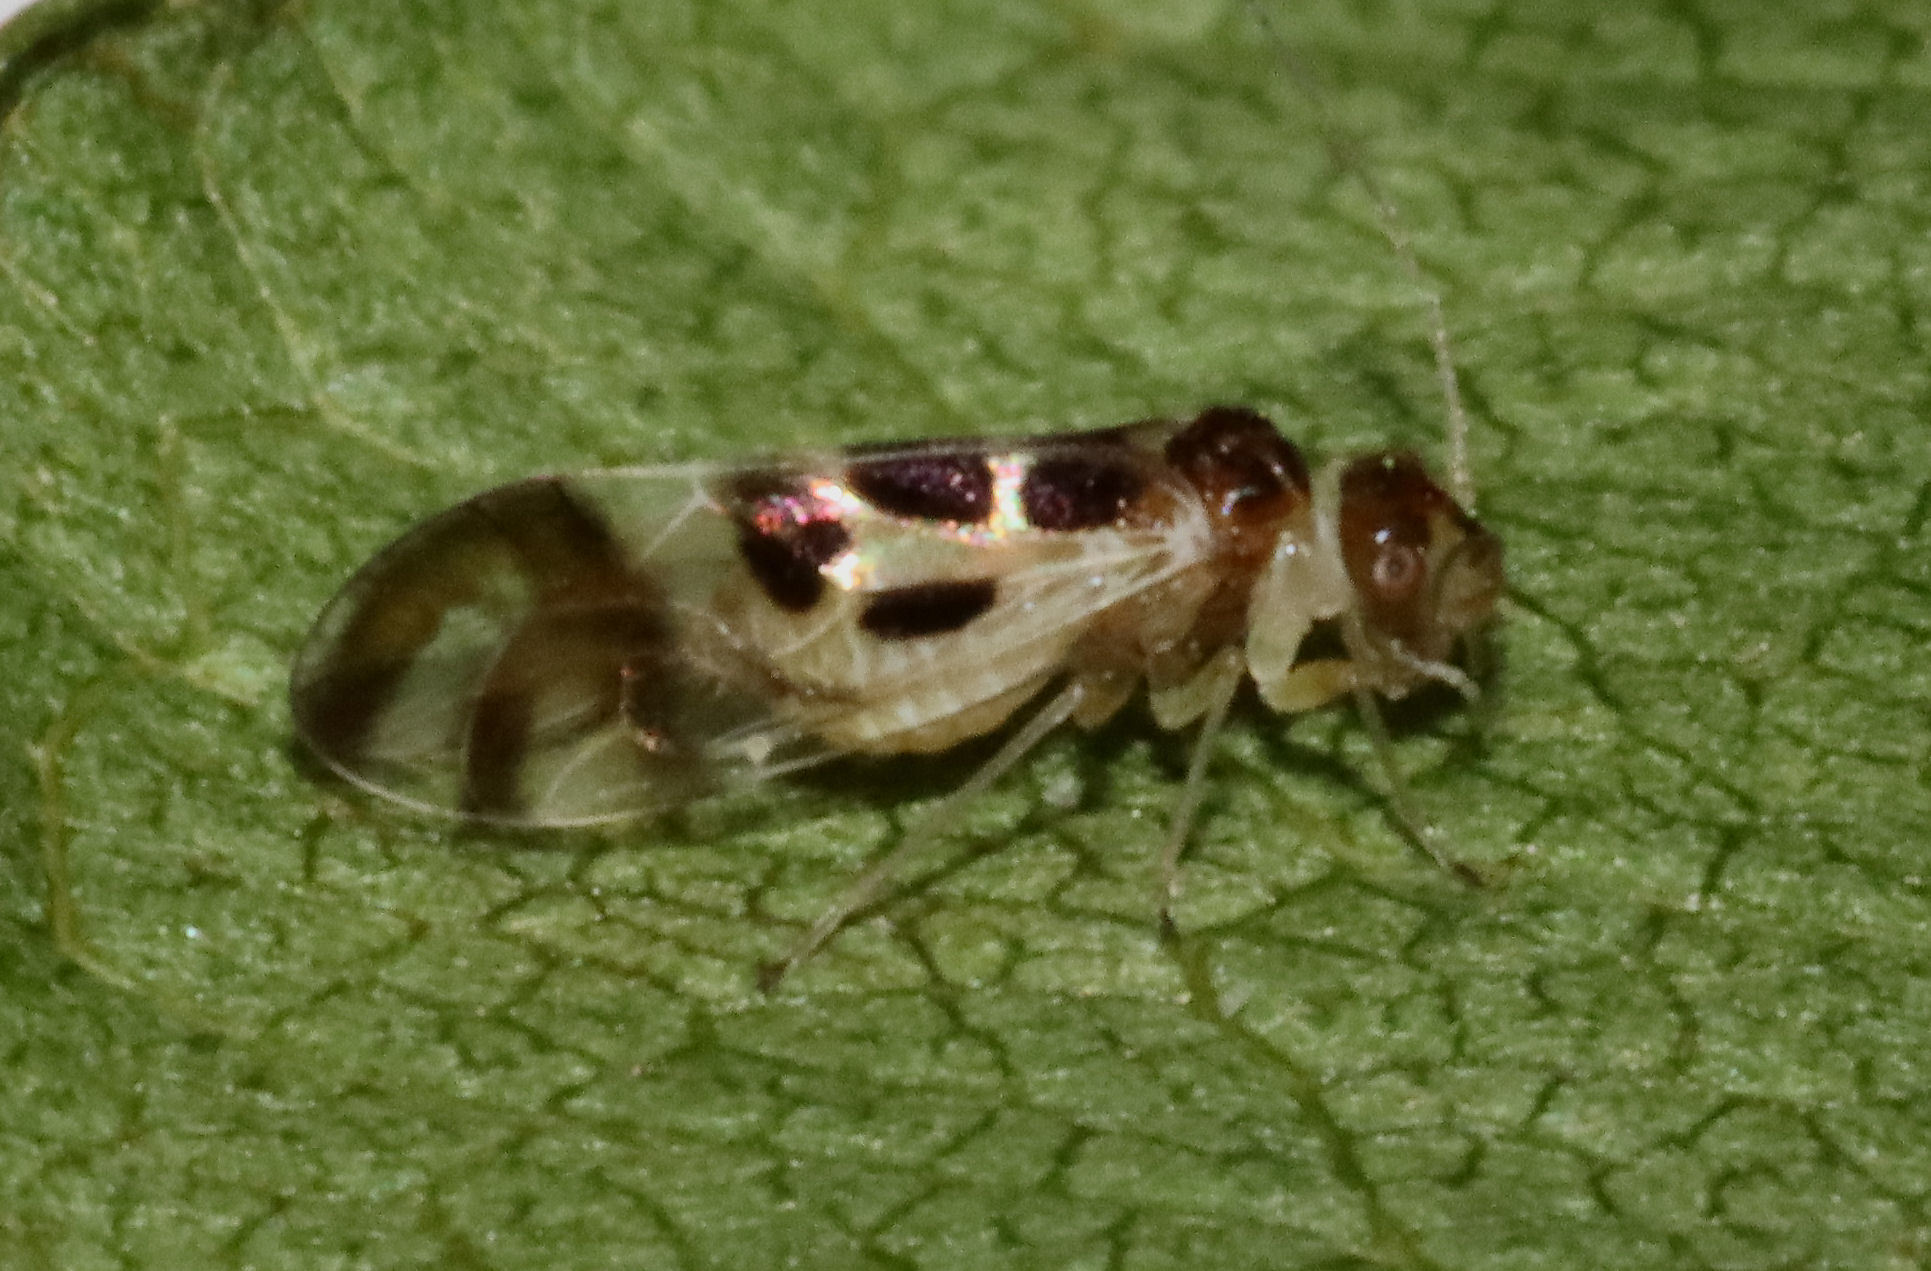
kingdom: Animalia
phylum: Arthropoda
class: Insecta
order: Psocodea
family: Stenopsocidae
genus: Graphopsocus
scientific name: Graphopsocus cruciatus
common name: Lizard bark louse
